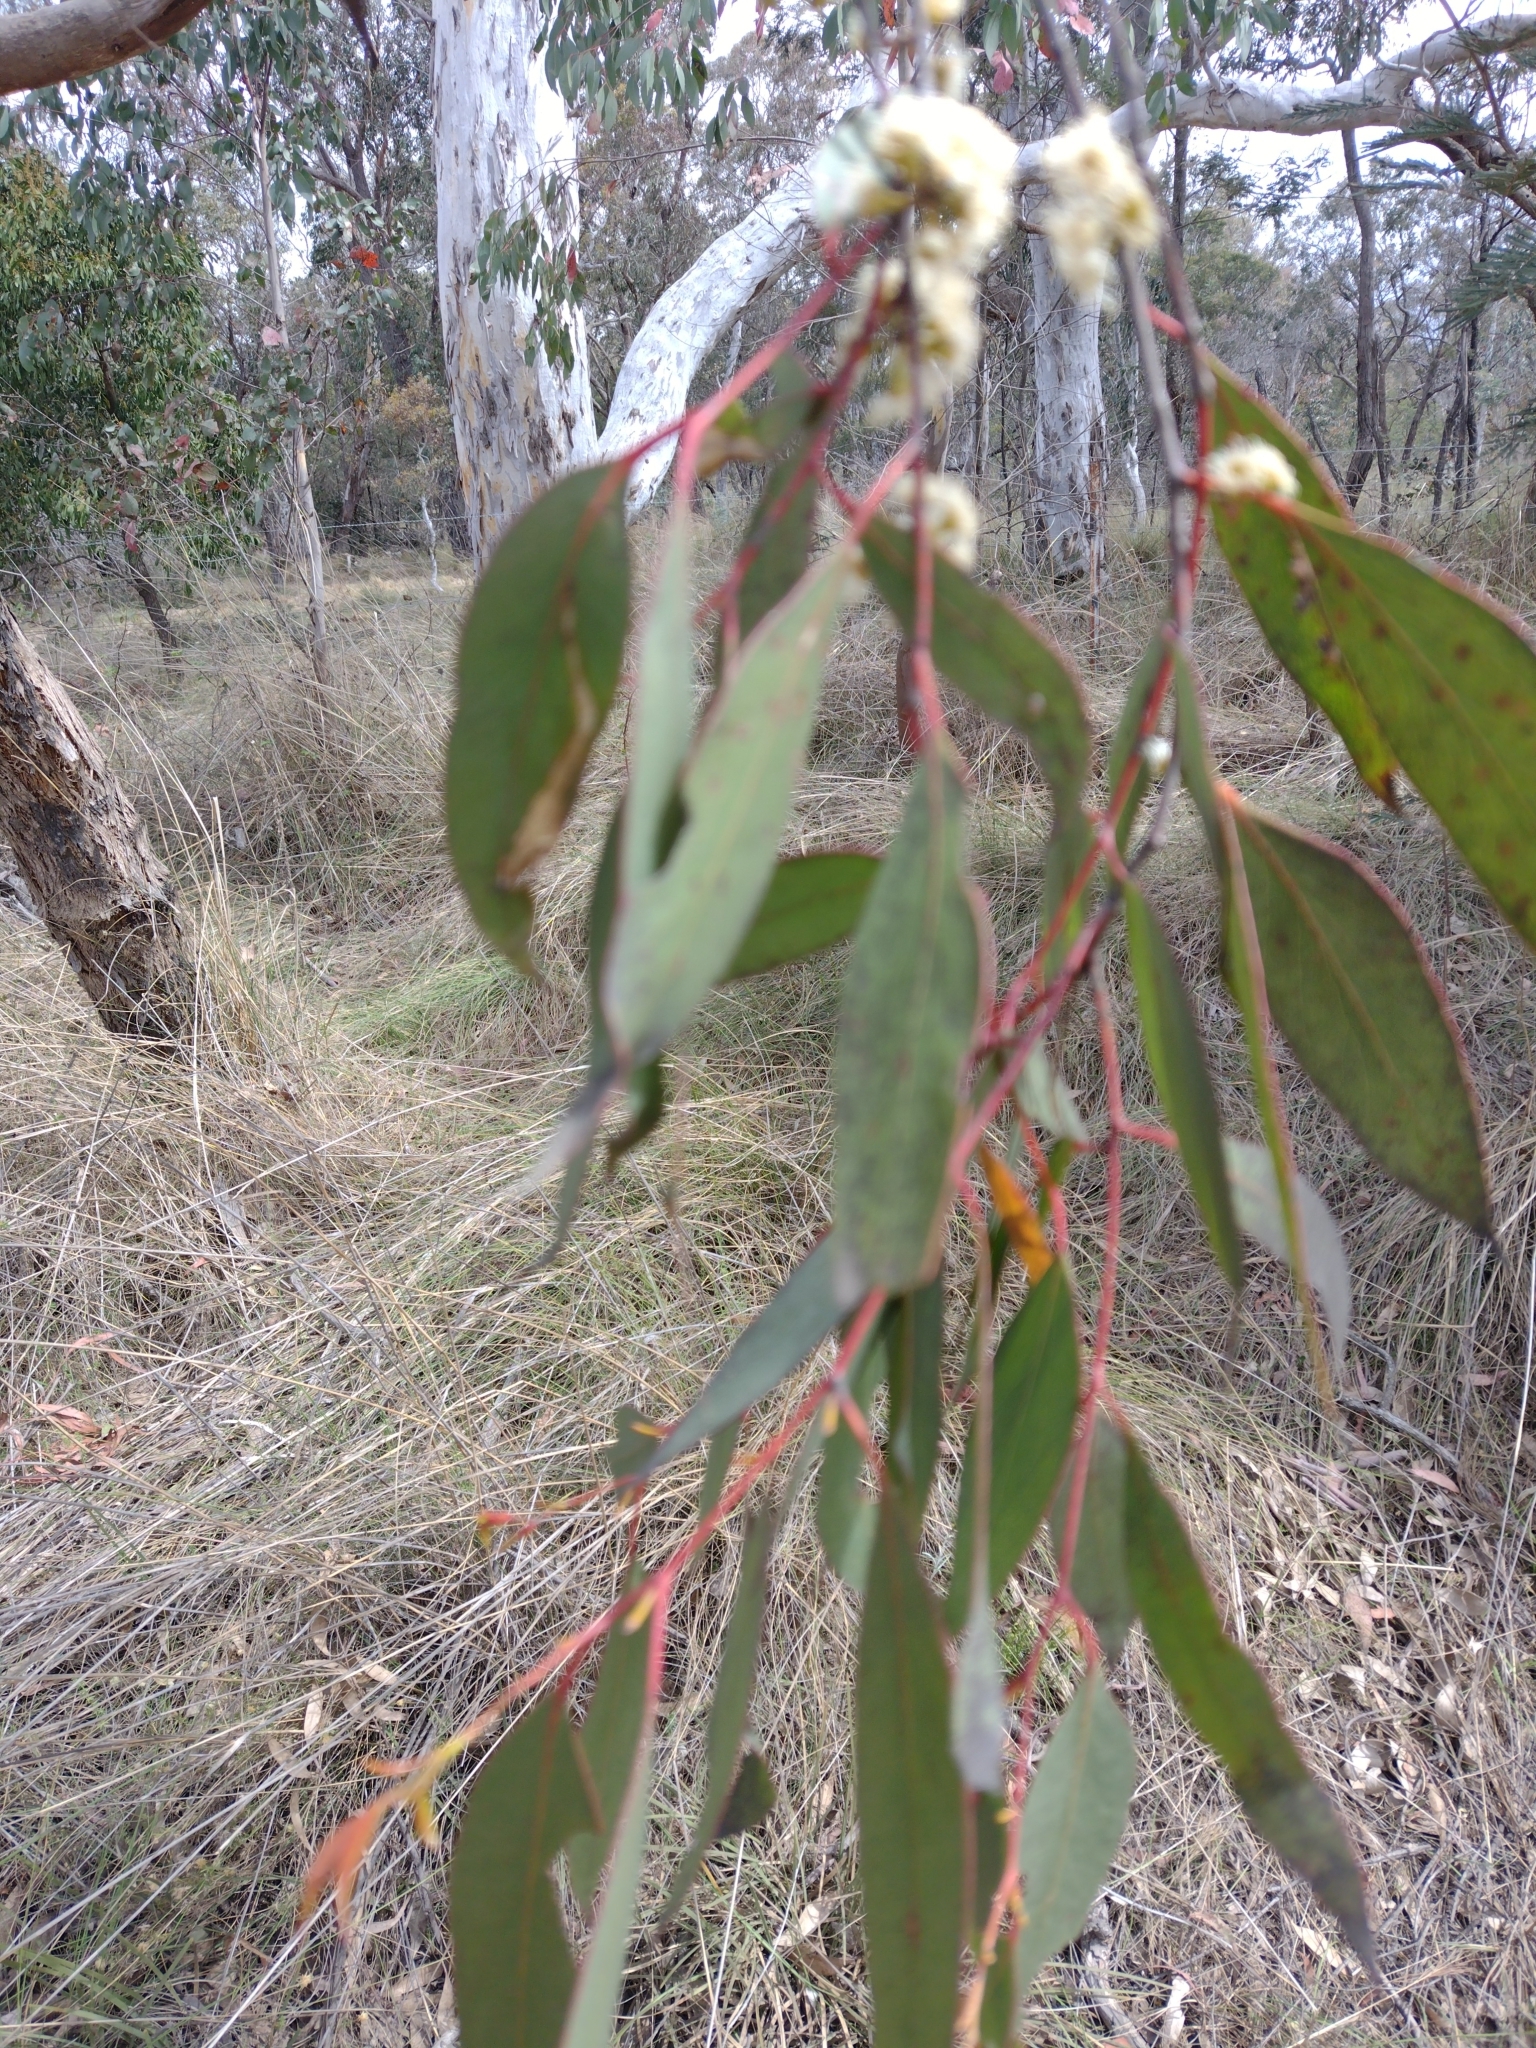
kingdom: Plantae
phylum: Tracheophyta
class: Magnoliopsida
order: Myrtales
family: Myrtaceae
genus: Eucalyptus
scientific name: Eucalyptus dives
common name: Blue peppermint
